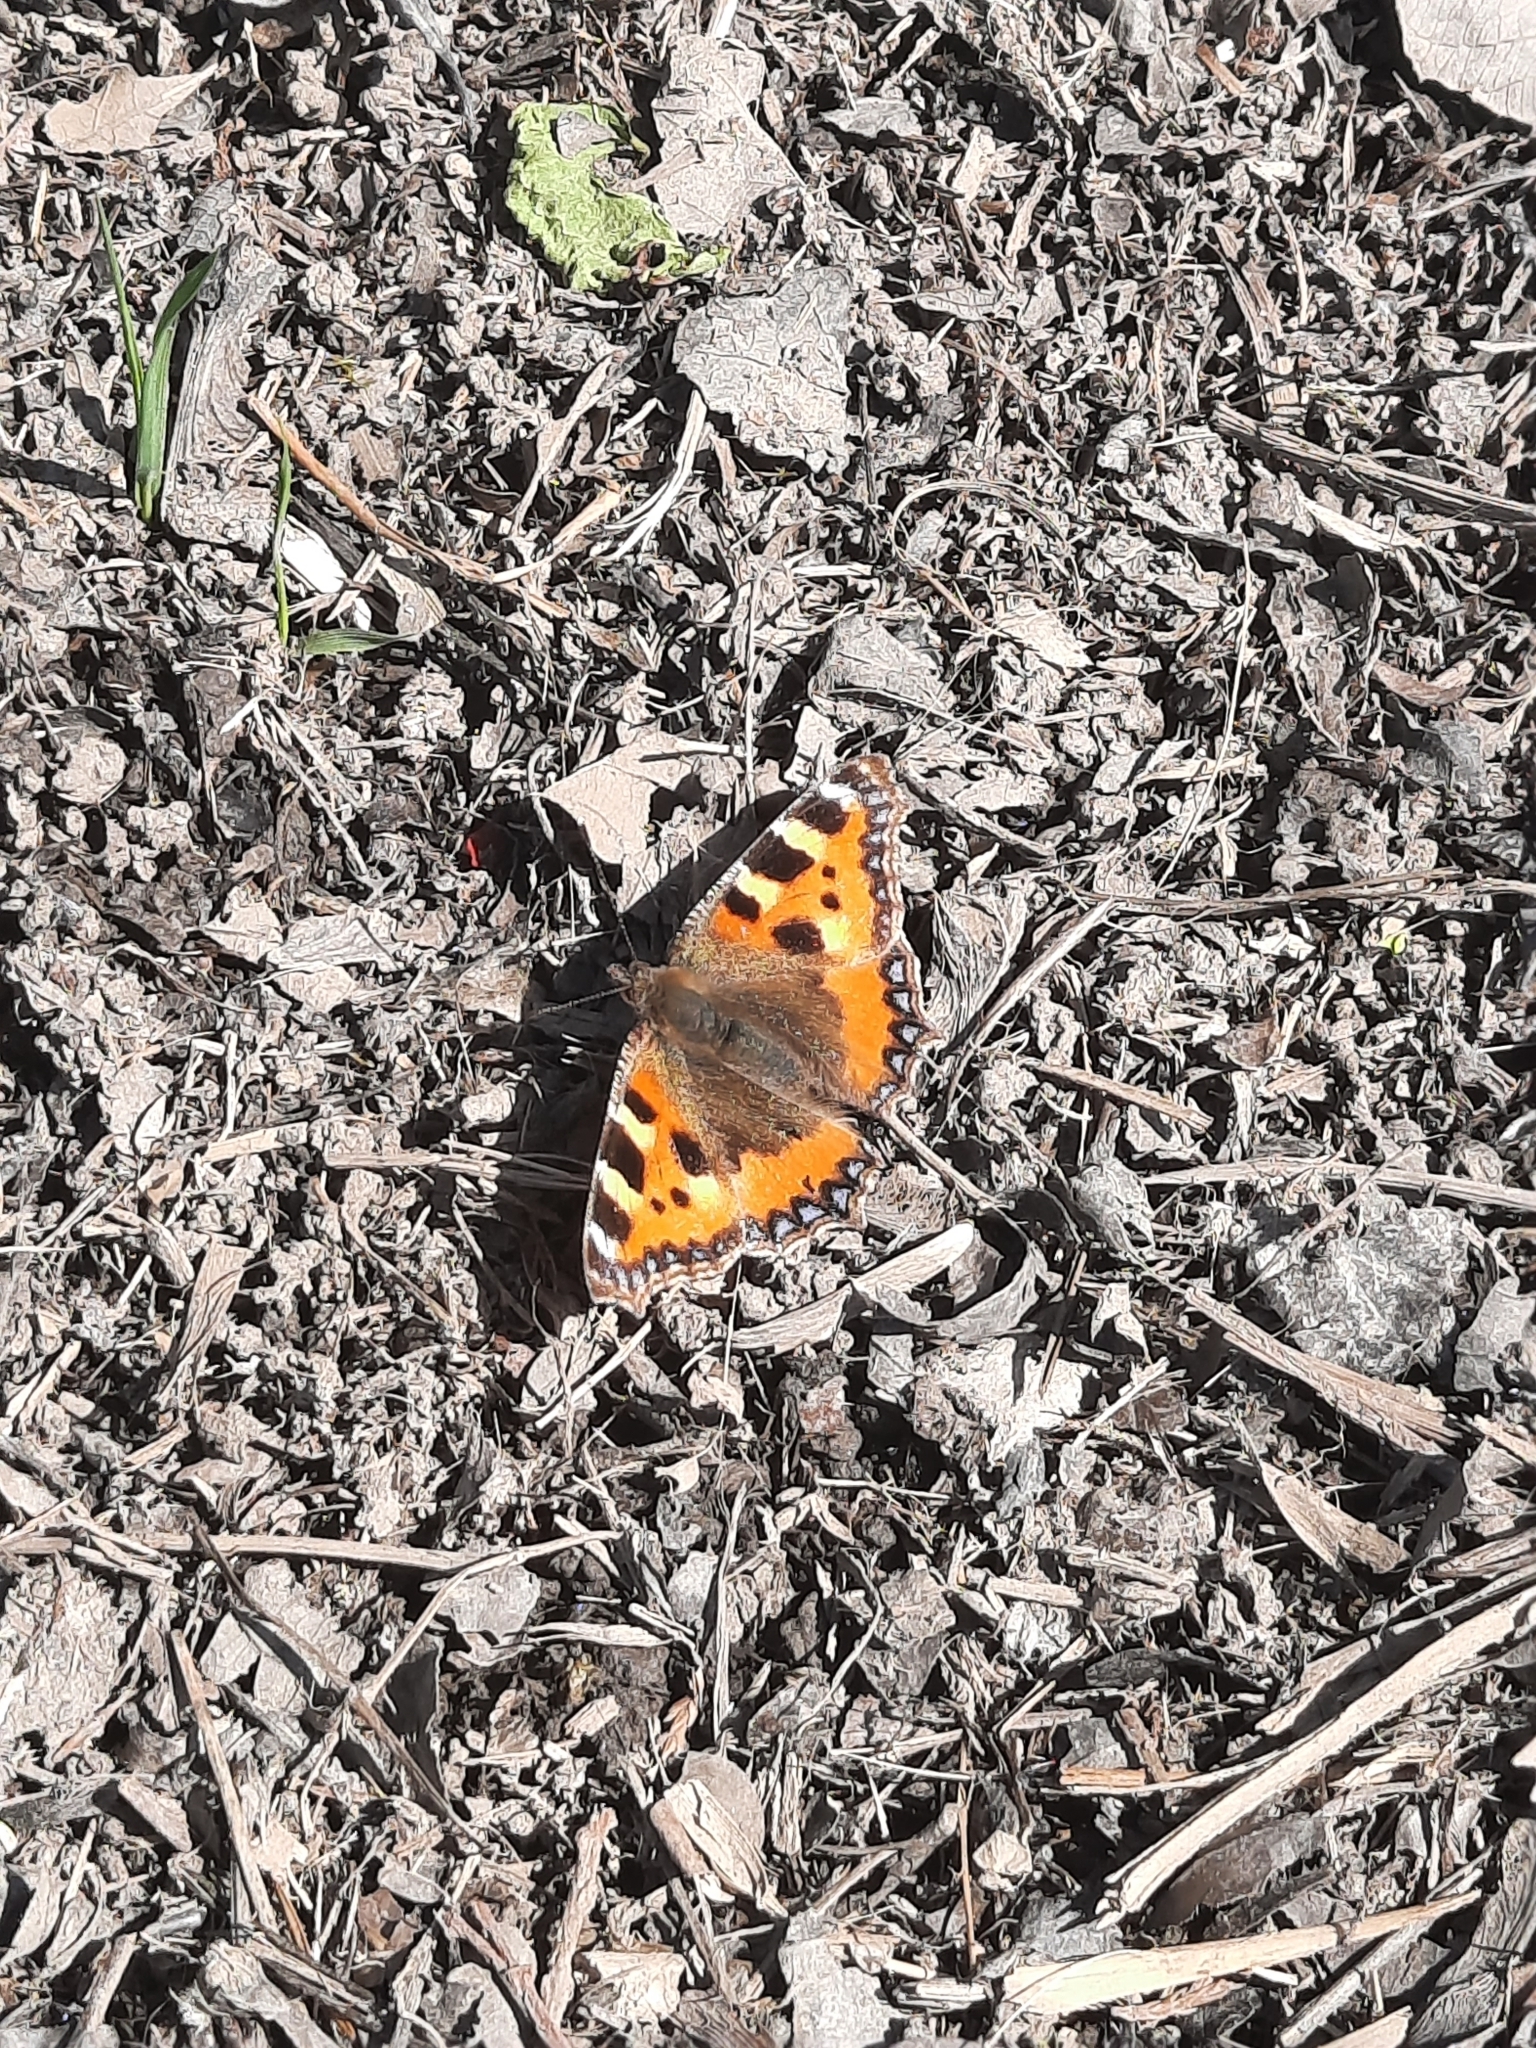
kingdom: Animalia
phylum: Arthropoda
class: Insecta
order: Lepidoptera
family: Nymphalidae
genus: Aglais
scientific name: Aglais urticae
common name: Small tortoiseshell
